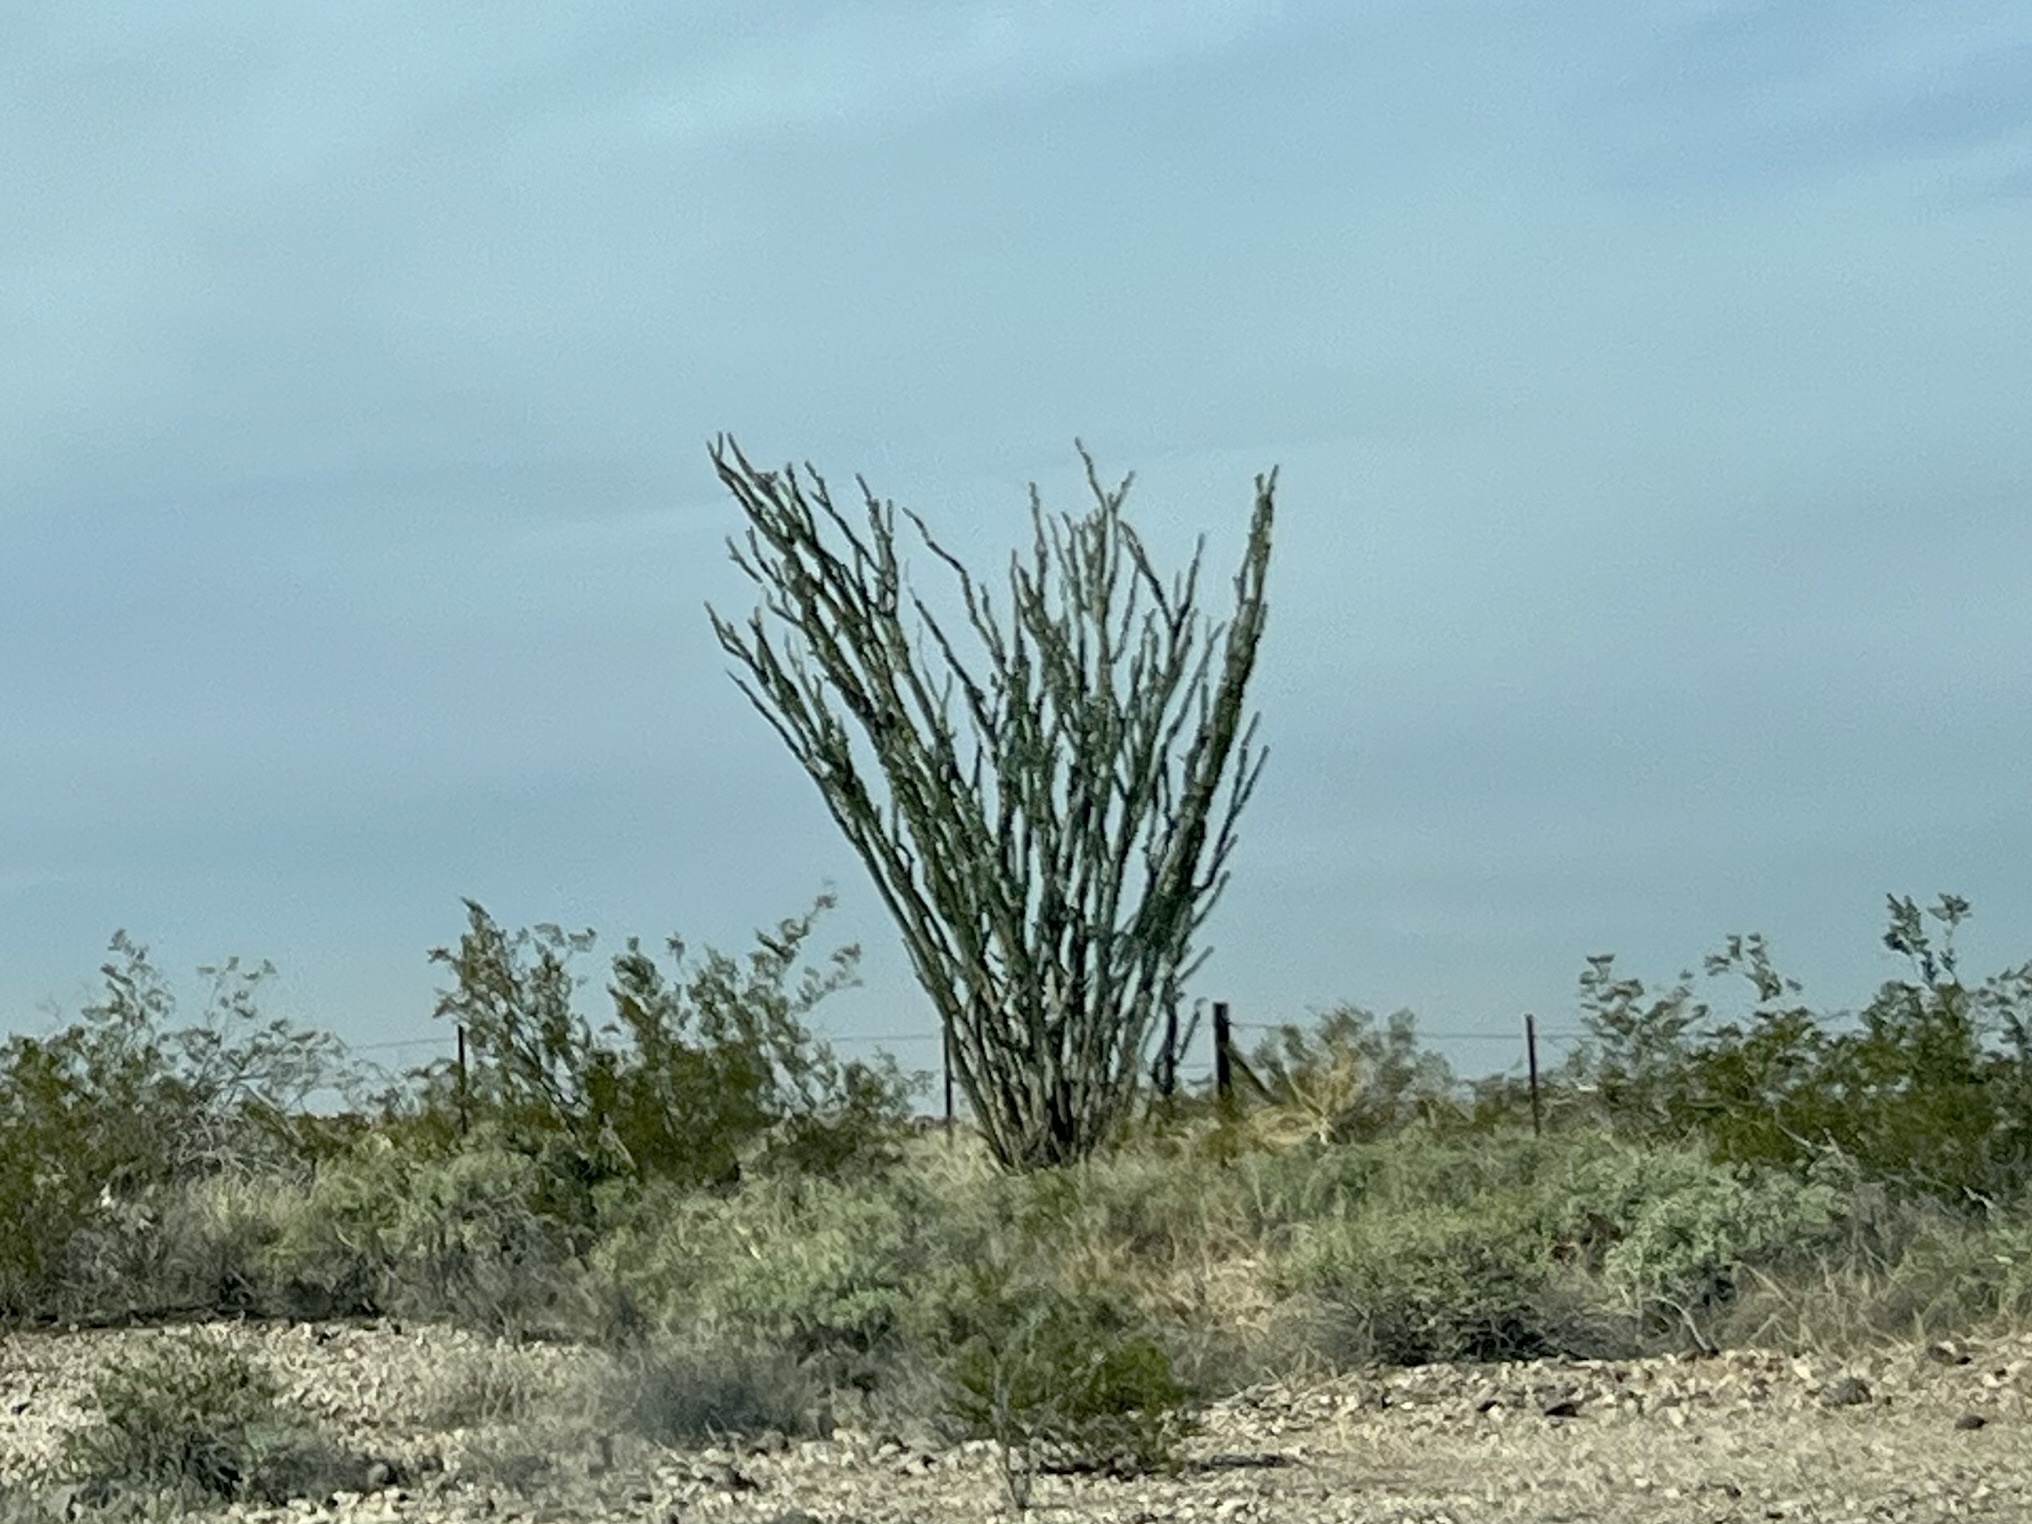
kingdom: Plantae
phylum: Tracheophyta
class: Magnoliopsida
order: Ericales
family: Fouquieriaceae
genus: Fouquieria
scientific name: Fouquieria splendens
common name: Vine-cactus
